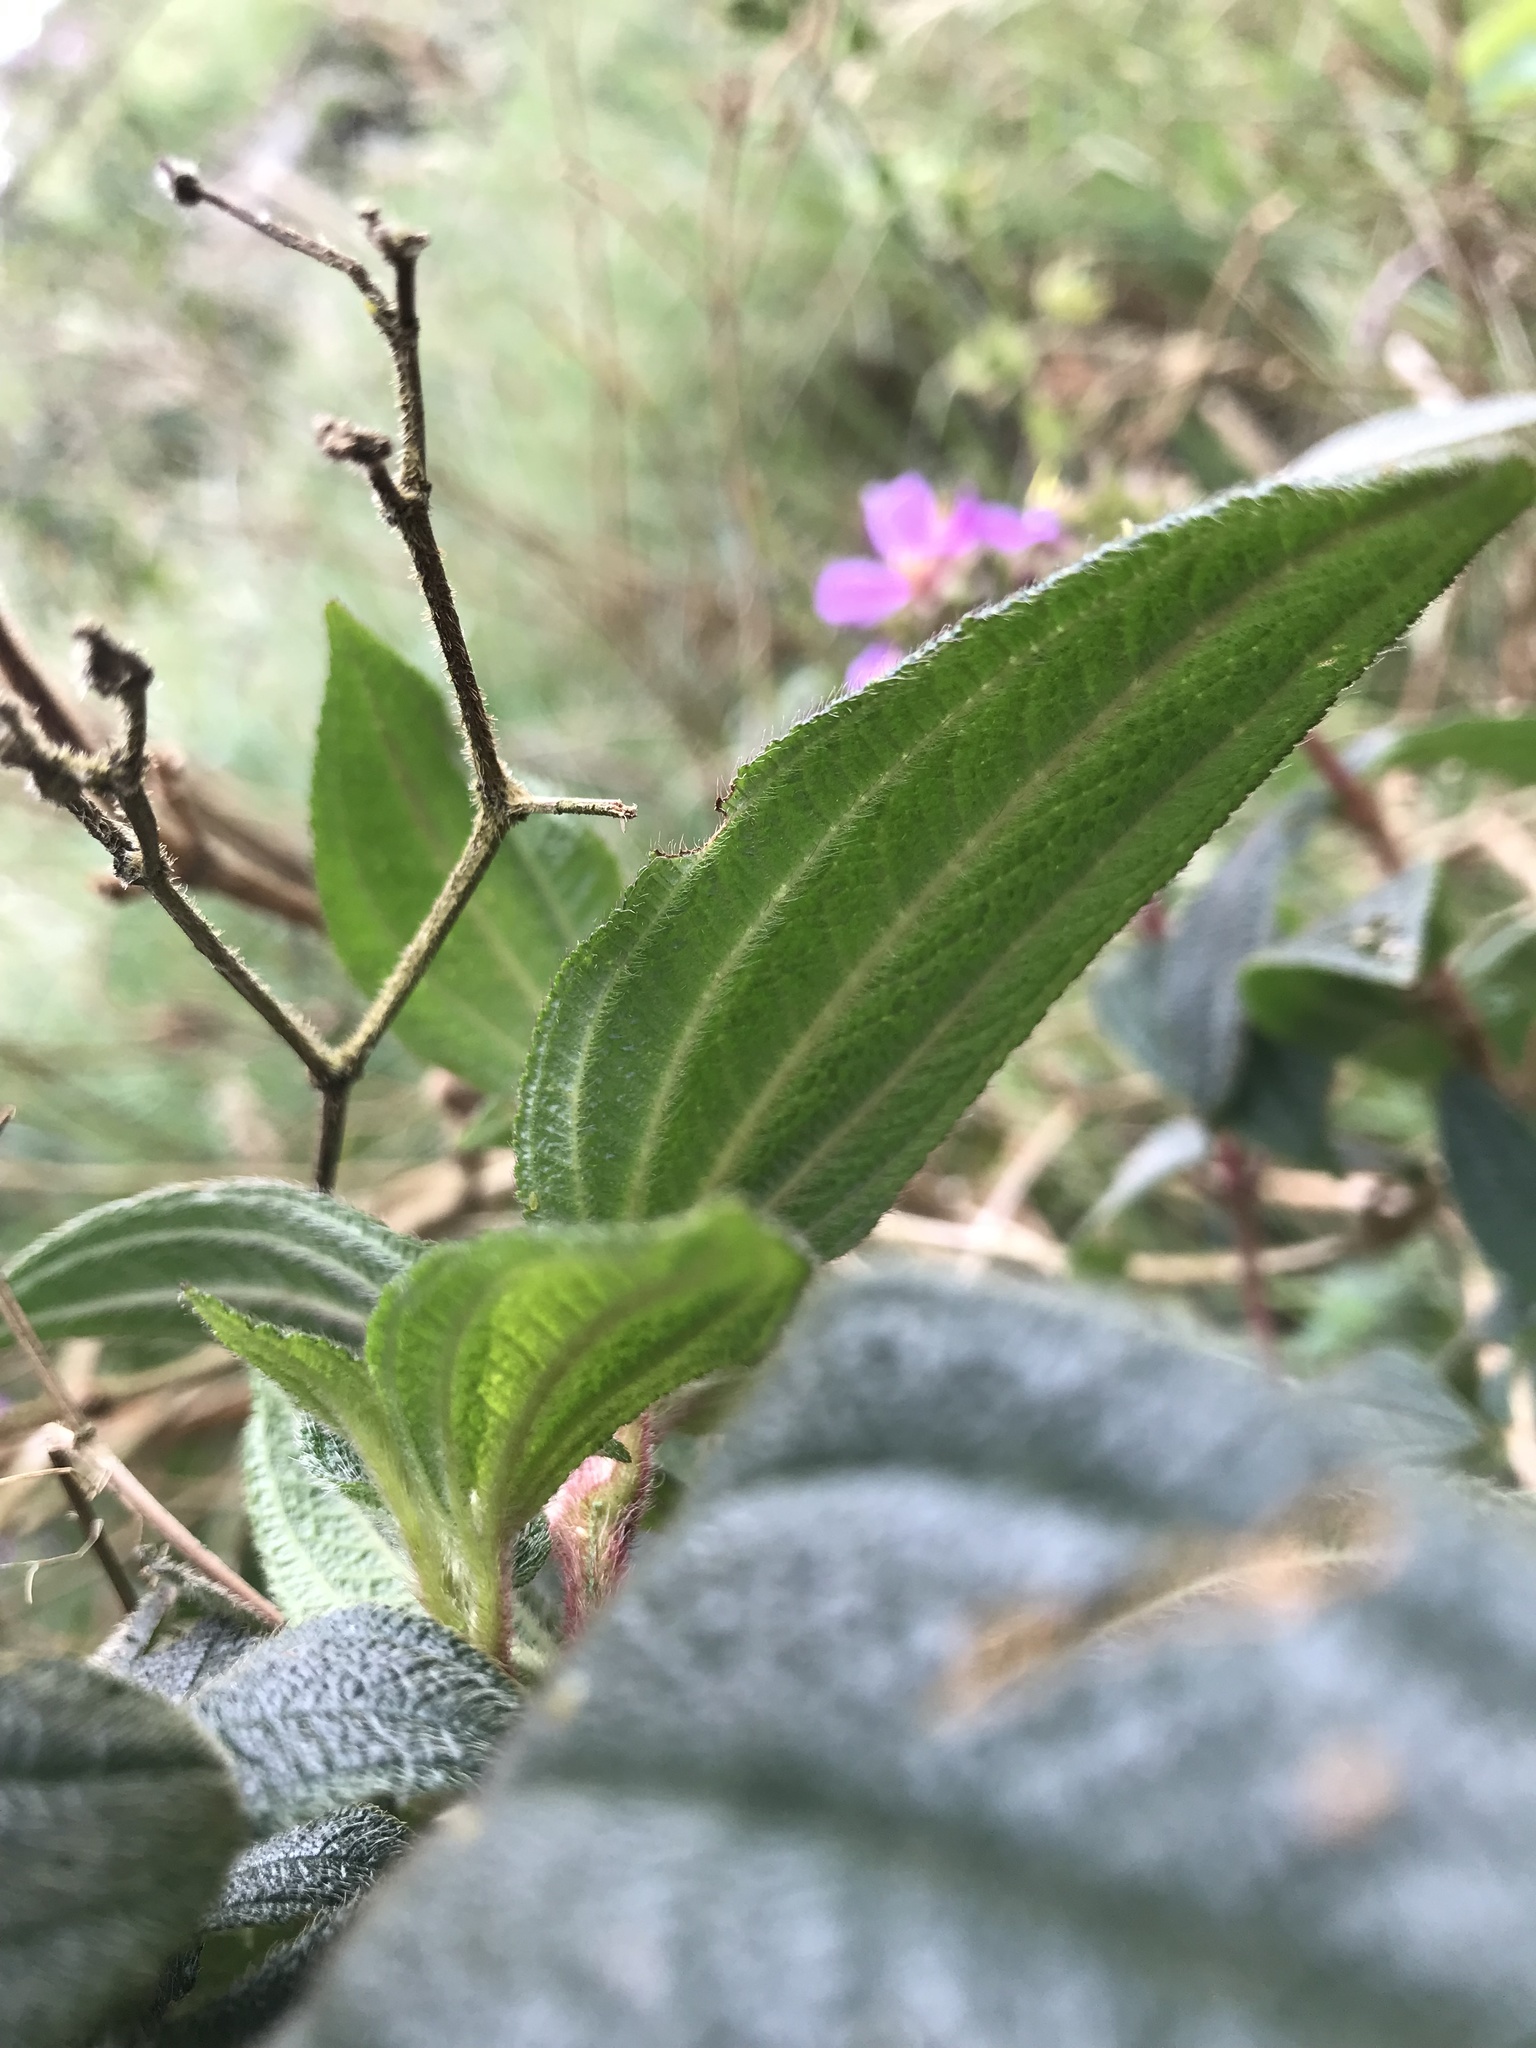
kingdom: Plantae
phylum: Tracheophyta
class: Magnoliopsida
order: Myrtales
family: Melastomataceae
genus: Chaetogastra
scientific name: Chaetogastra mollis
